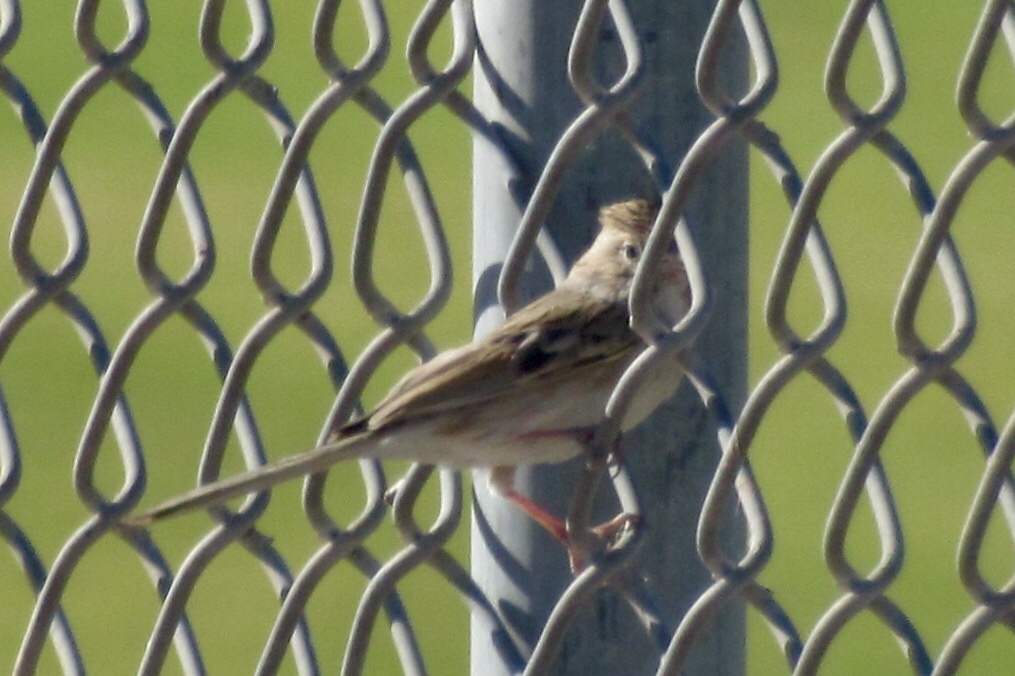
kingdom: Animalia
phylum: Chordata
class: Aves
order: Passeriformes
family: Passerellidae
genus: Spizella
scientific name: Spizella
